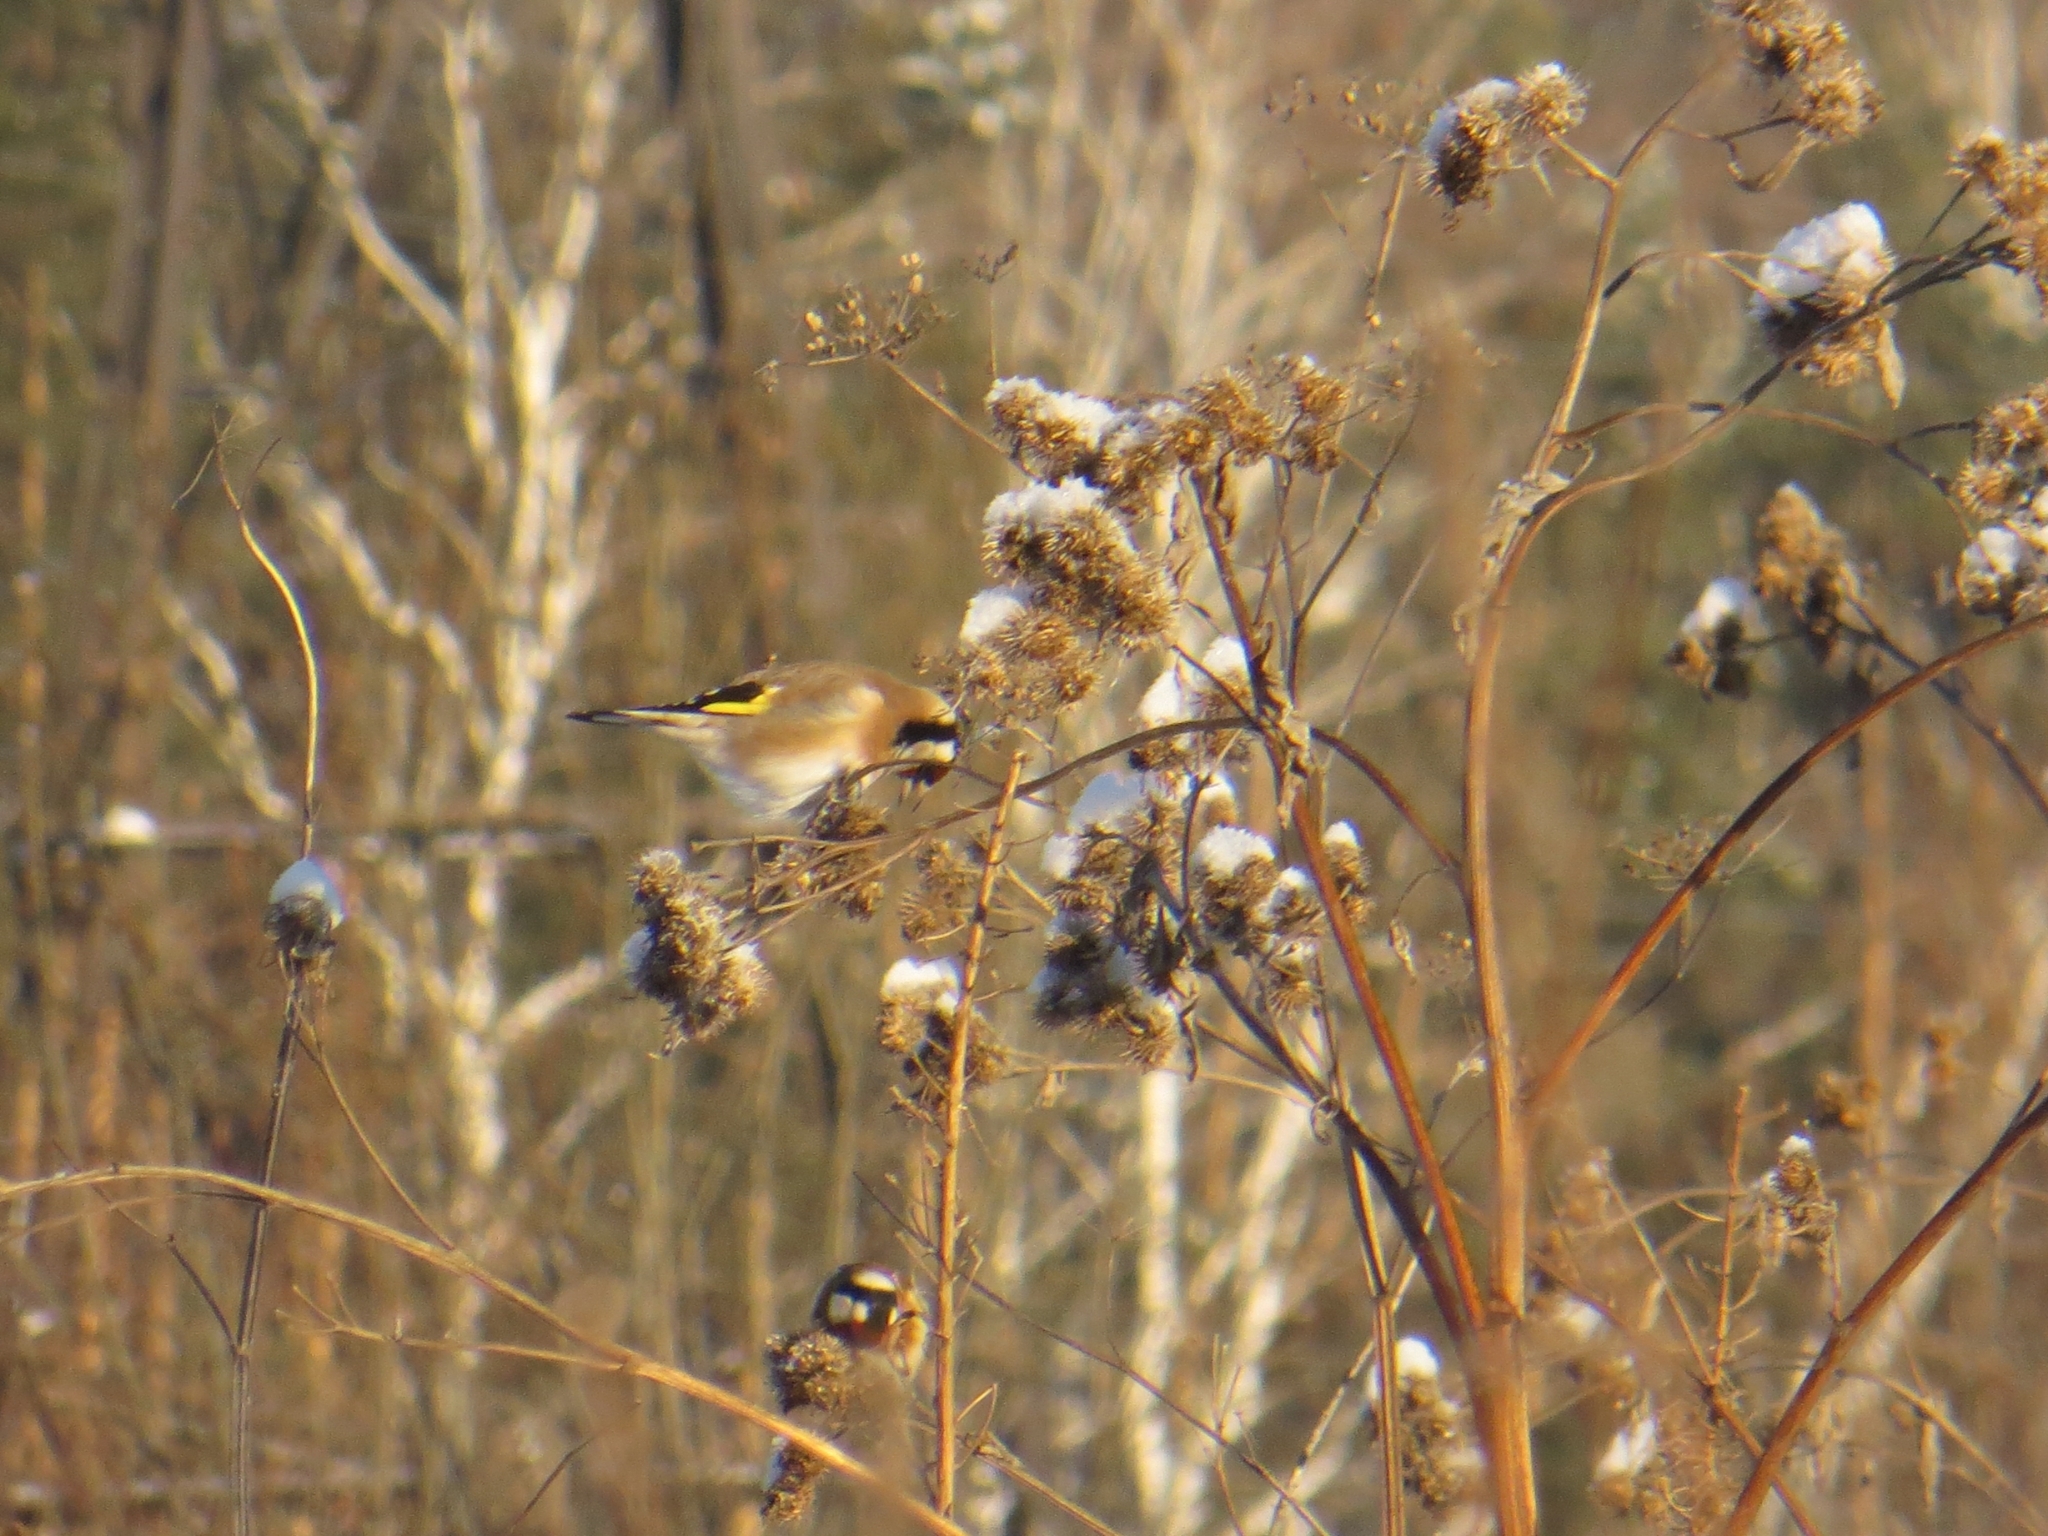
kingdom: Animalia
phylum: Chordata
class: Aves
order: Passeriformes
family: Fringillidae
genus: Carduelis
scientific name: Carduelis carduelis
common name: European goldfinch
